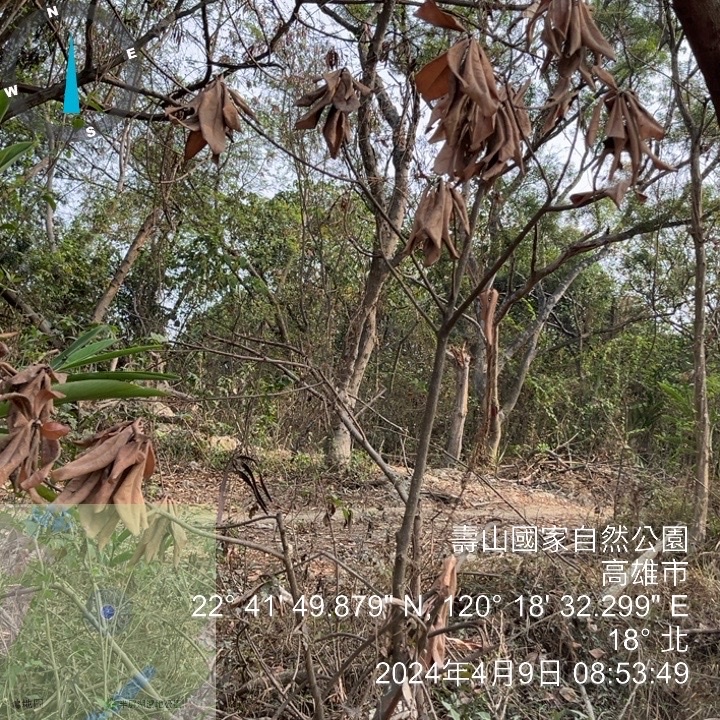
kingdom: Plantae
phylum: Tracheophyta
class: Magnoliopsida
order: Fabales
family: Fabaceae
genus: Leucaena
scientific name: Leucaena leucocephala
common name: White leadtree
